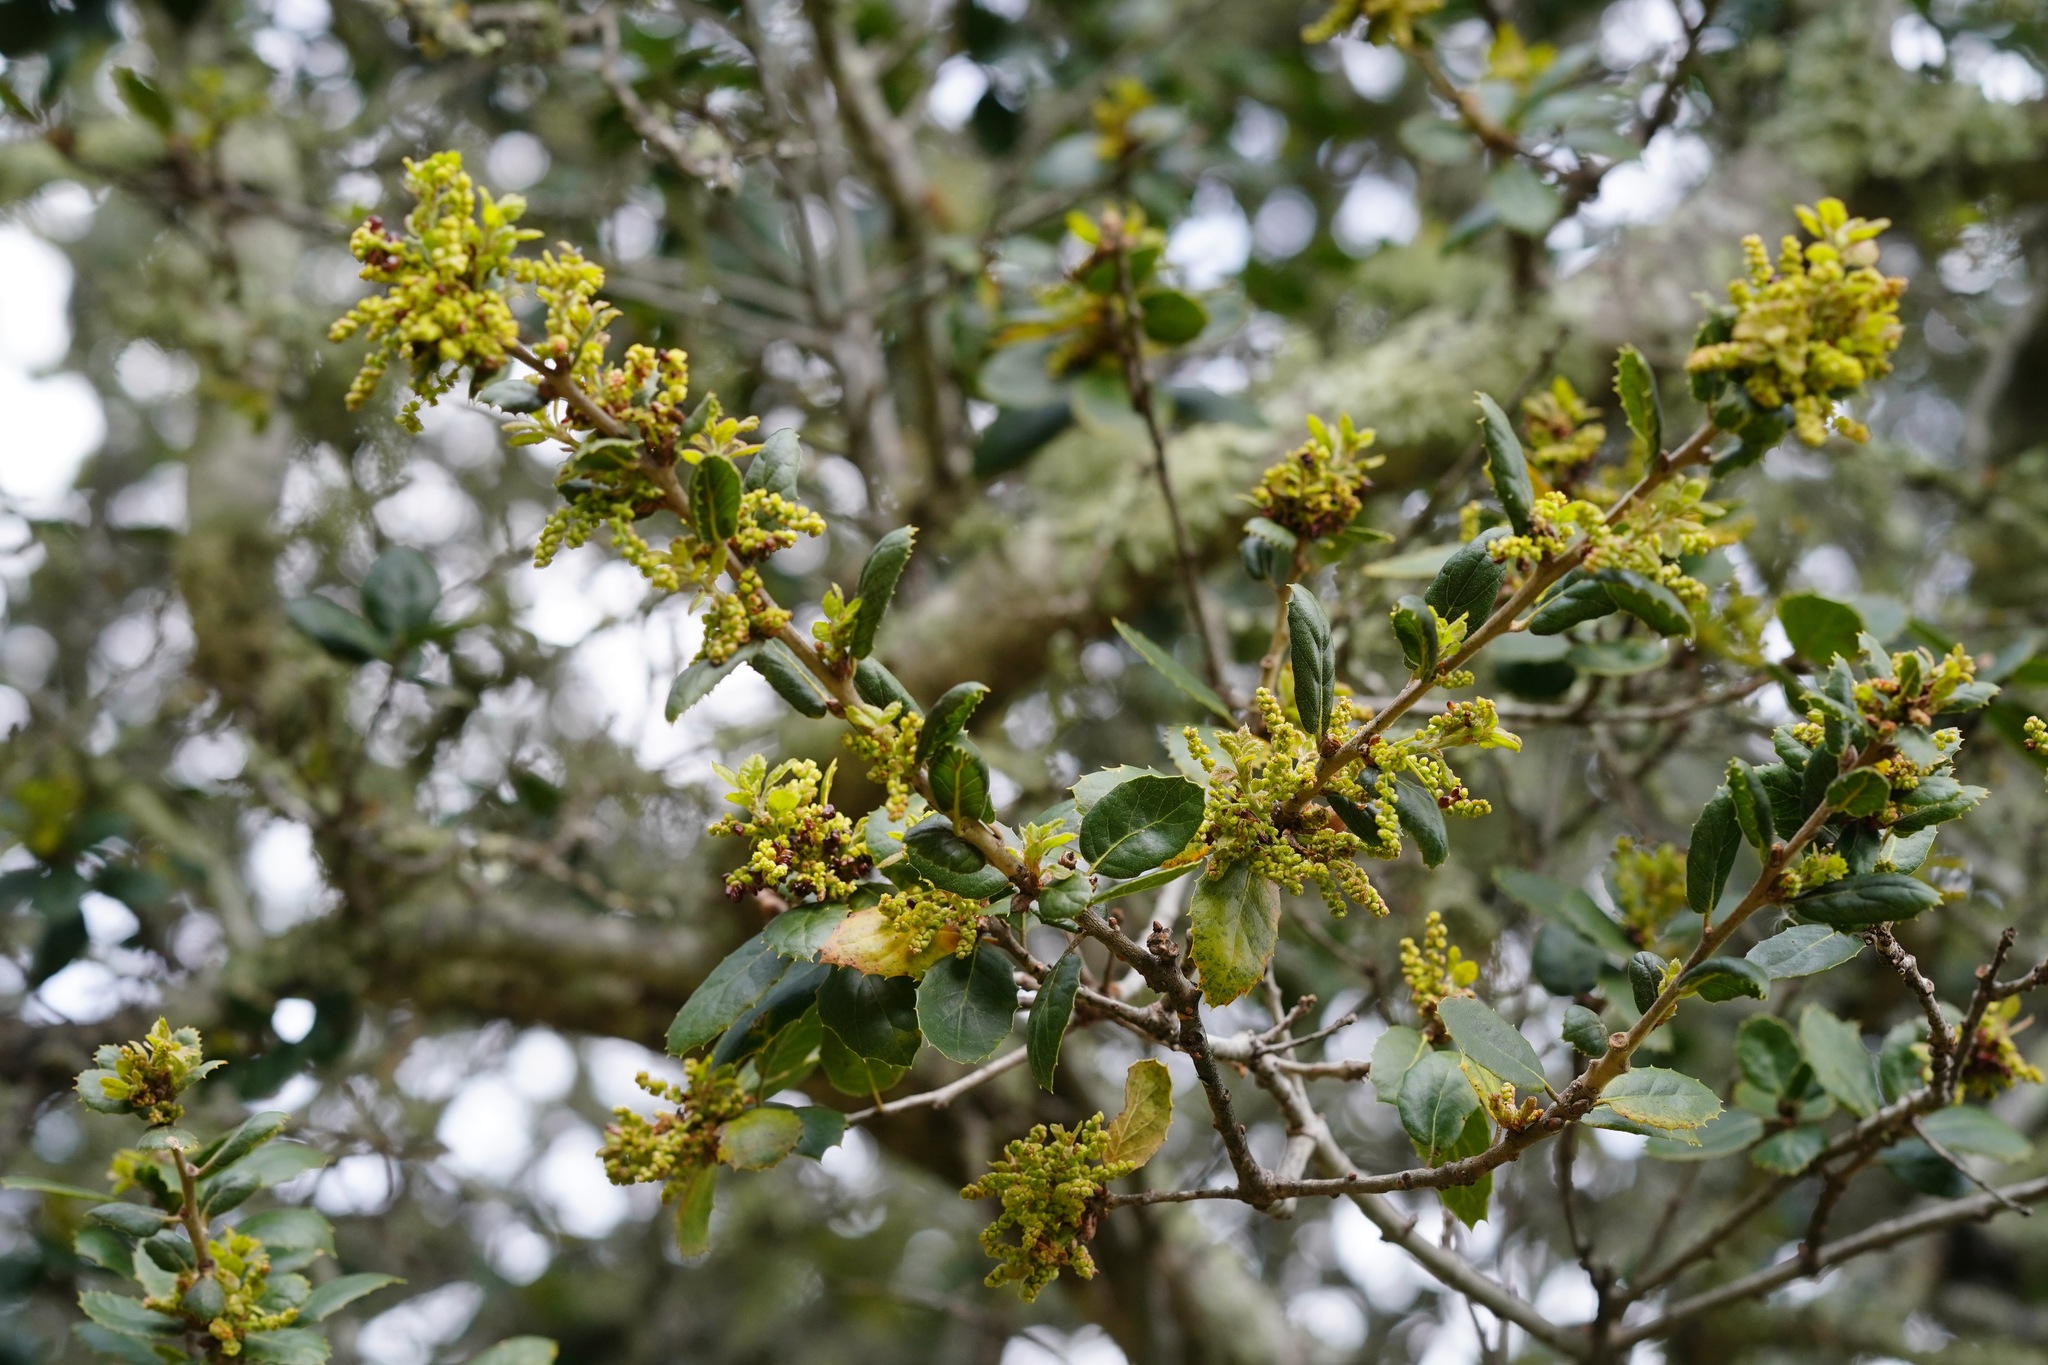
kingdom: Plantae
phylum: Tracheophyta
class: Magnoliopsida
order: Fagales
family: Fagaceae
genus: Quercus
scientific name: Quercus agrifolia
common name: California live oak
